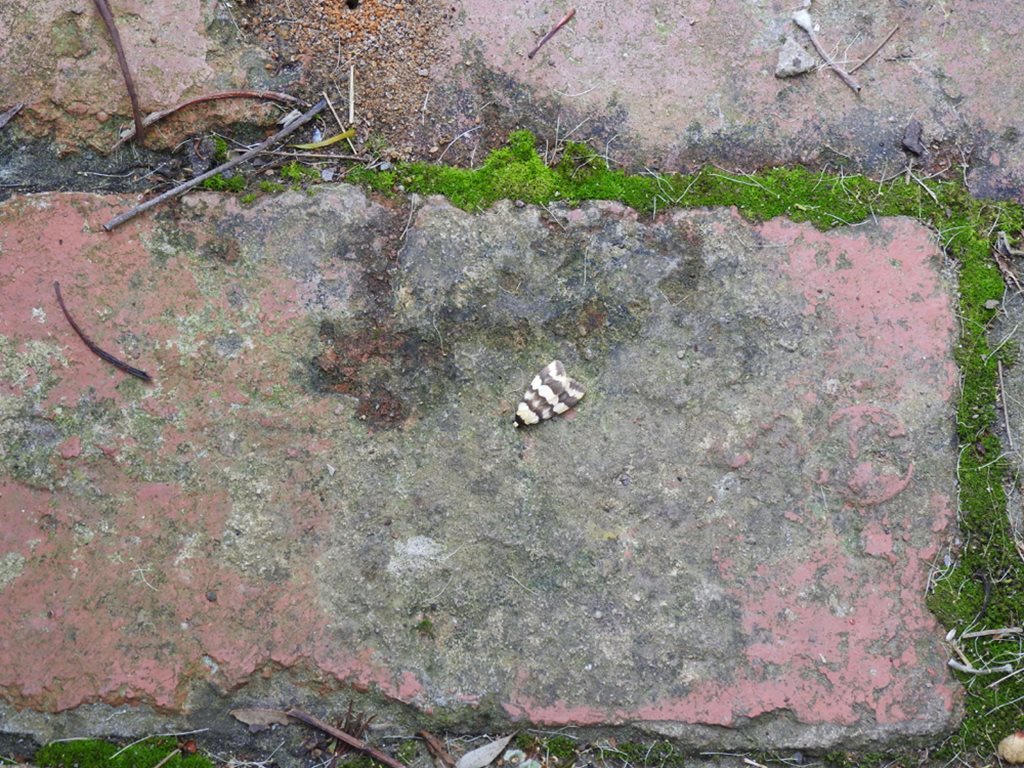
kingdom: Animalia
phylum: Arthropoda
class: Insecta
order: Lepidoptera
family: Erebidae
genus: Termessa
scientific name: Termessa gratiosa
